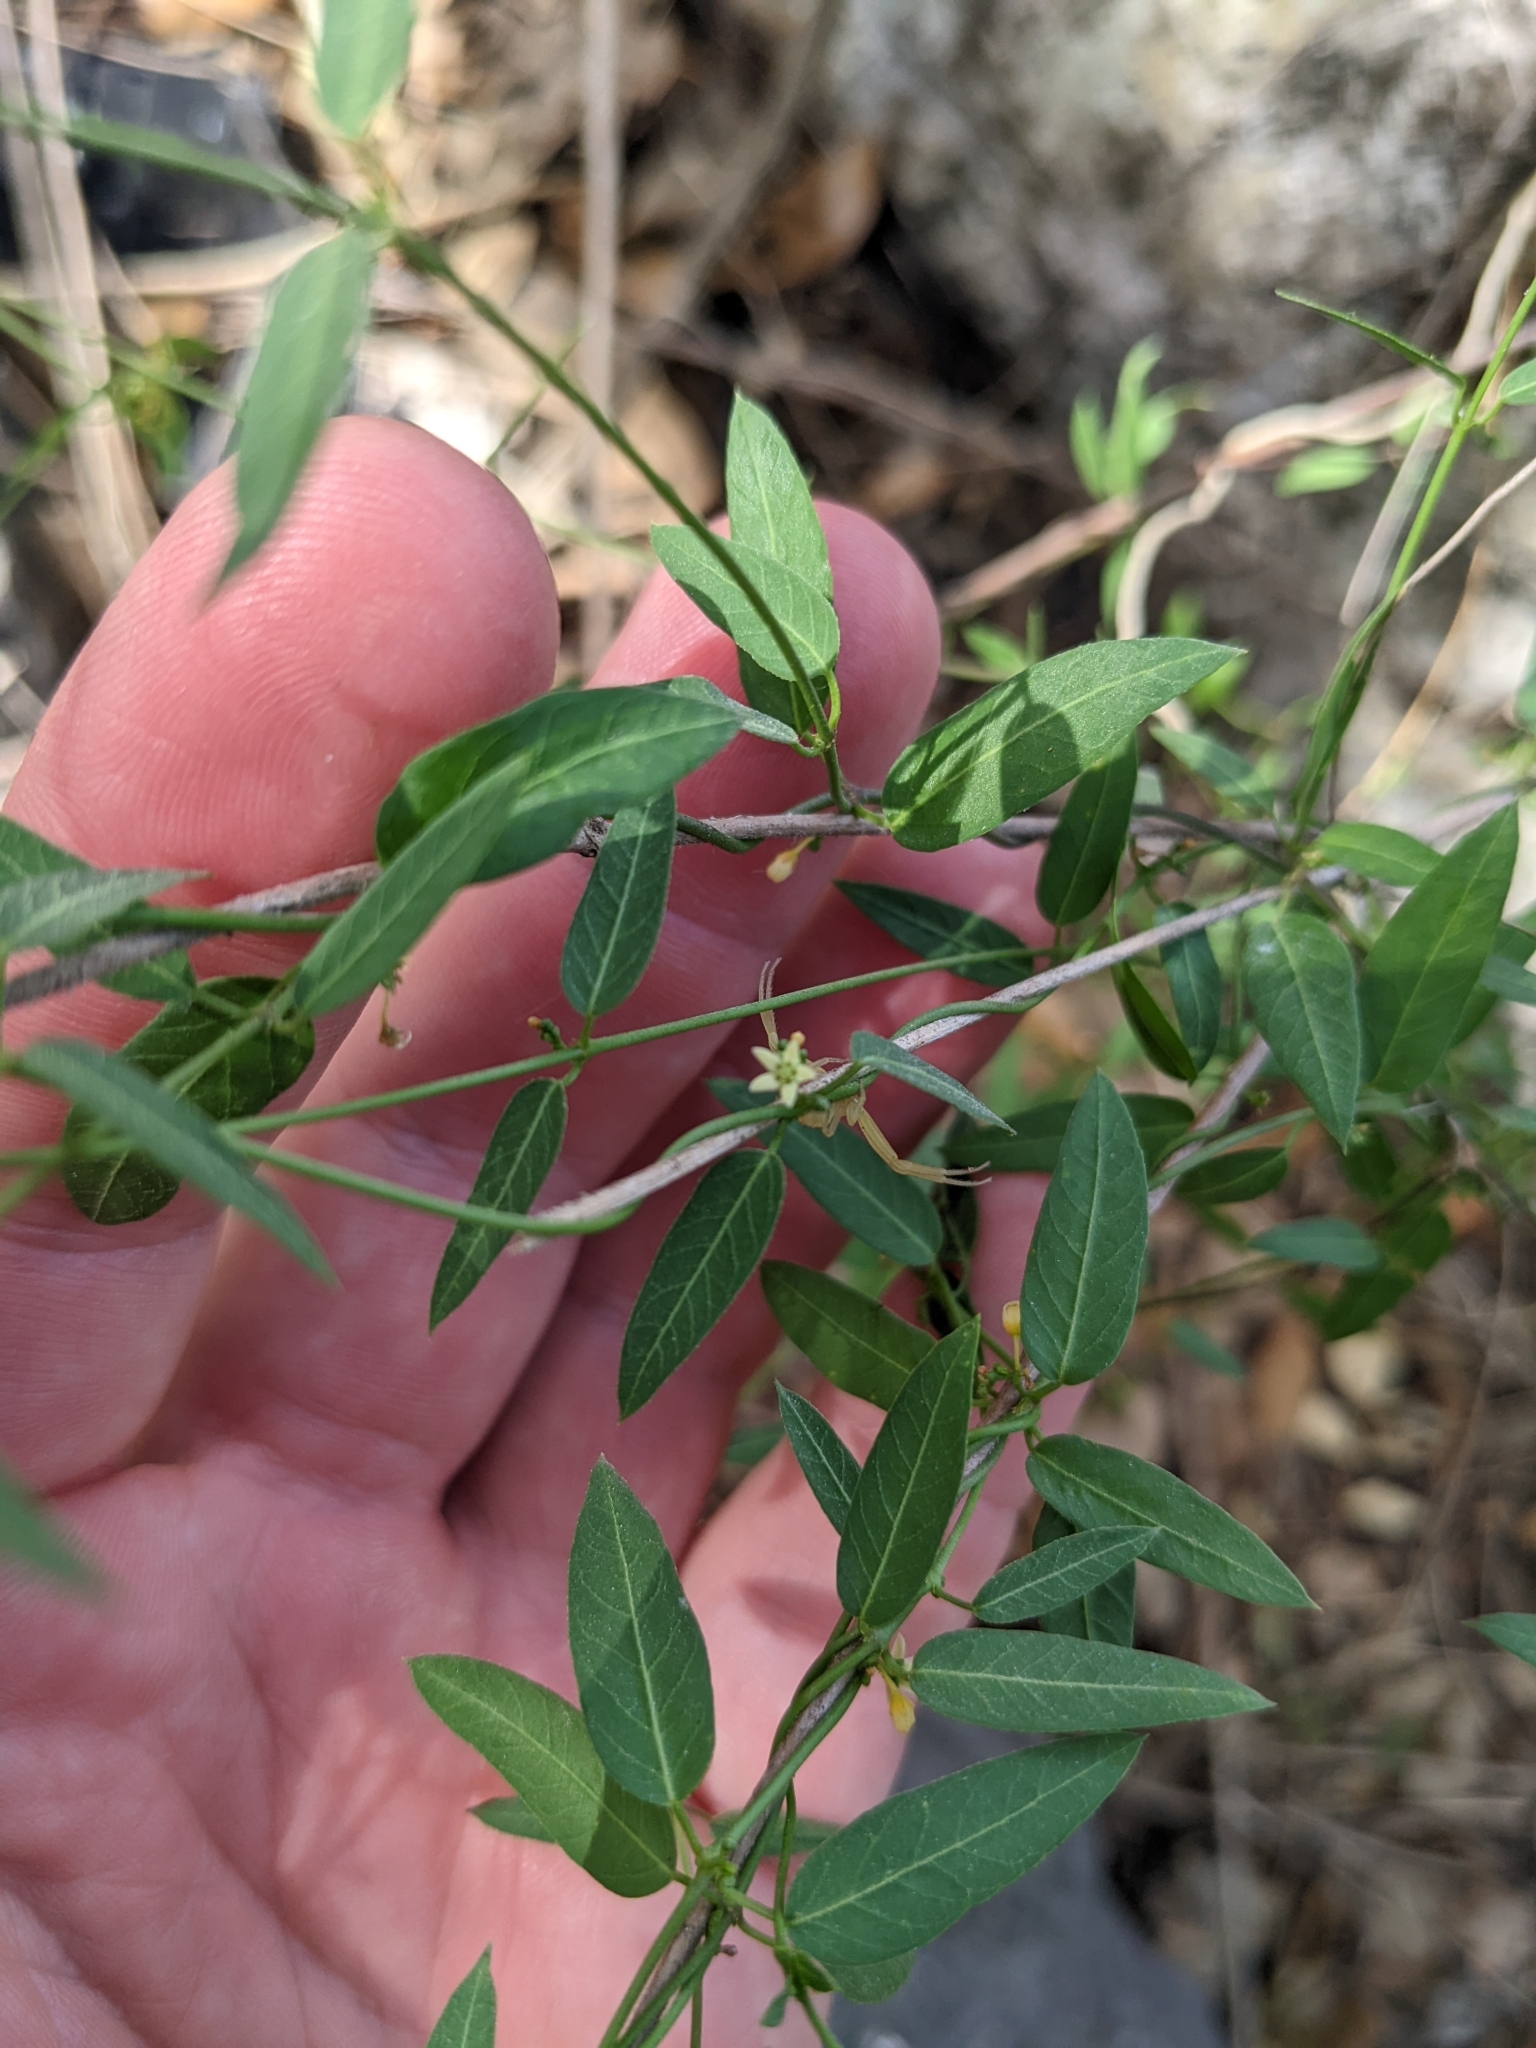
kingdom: Plantae
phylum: Tracheophyta
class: Magnoliopsida
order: Gentianales
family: Apocynaceae
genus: Metastelma
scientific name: Metastelma palmeri
